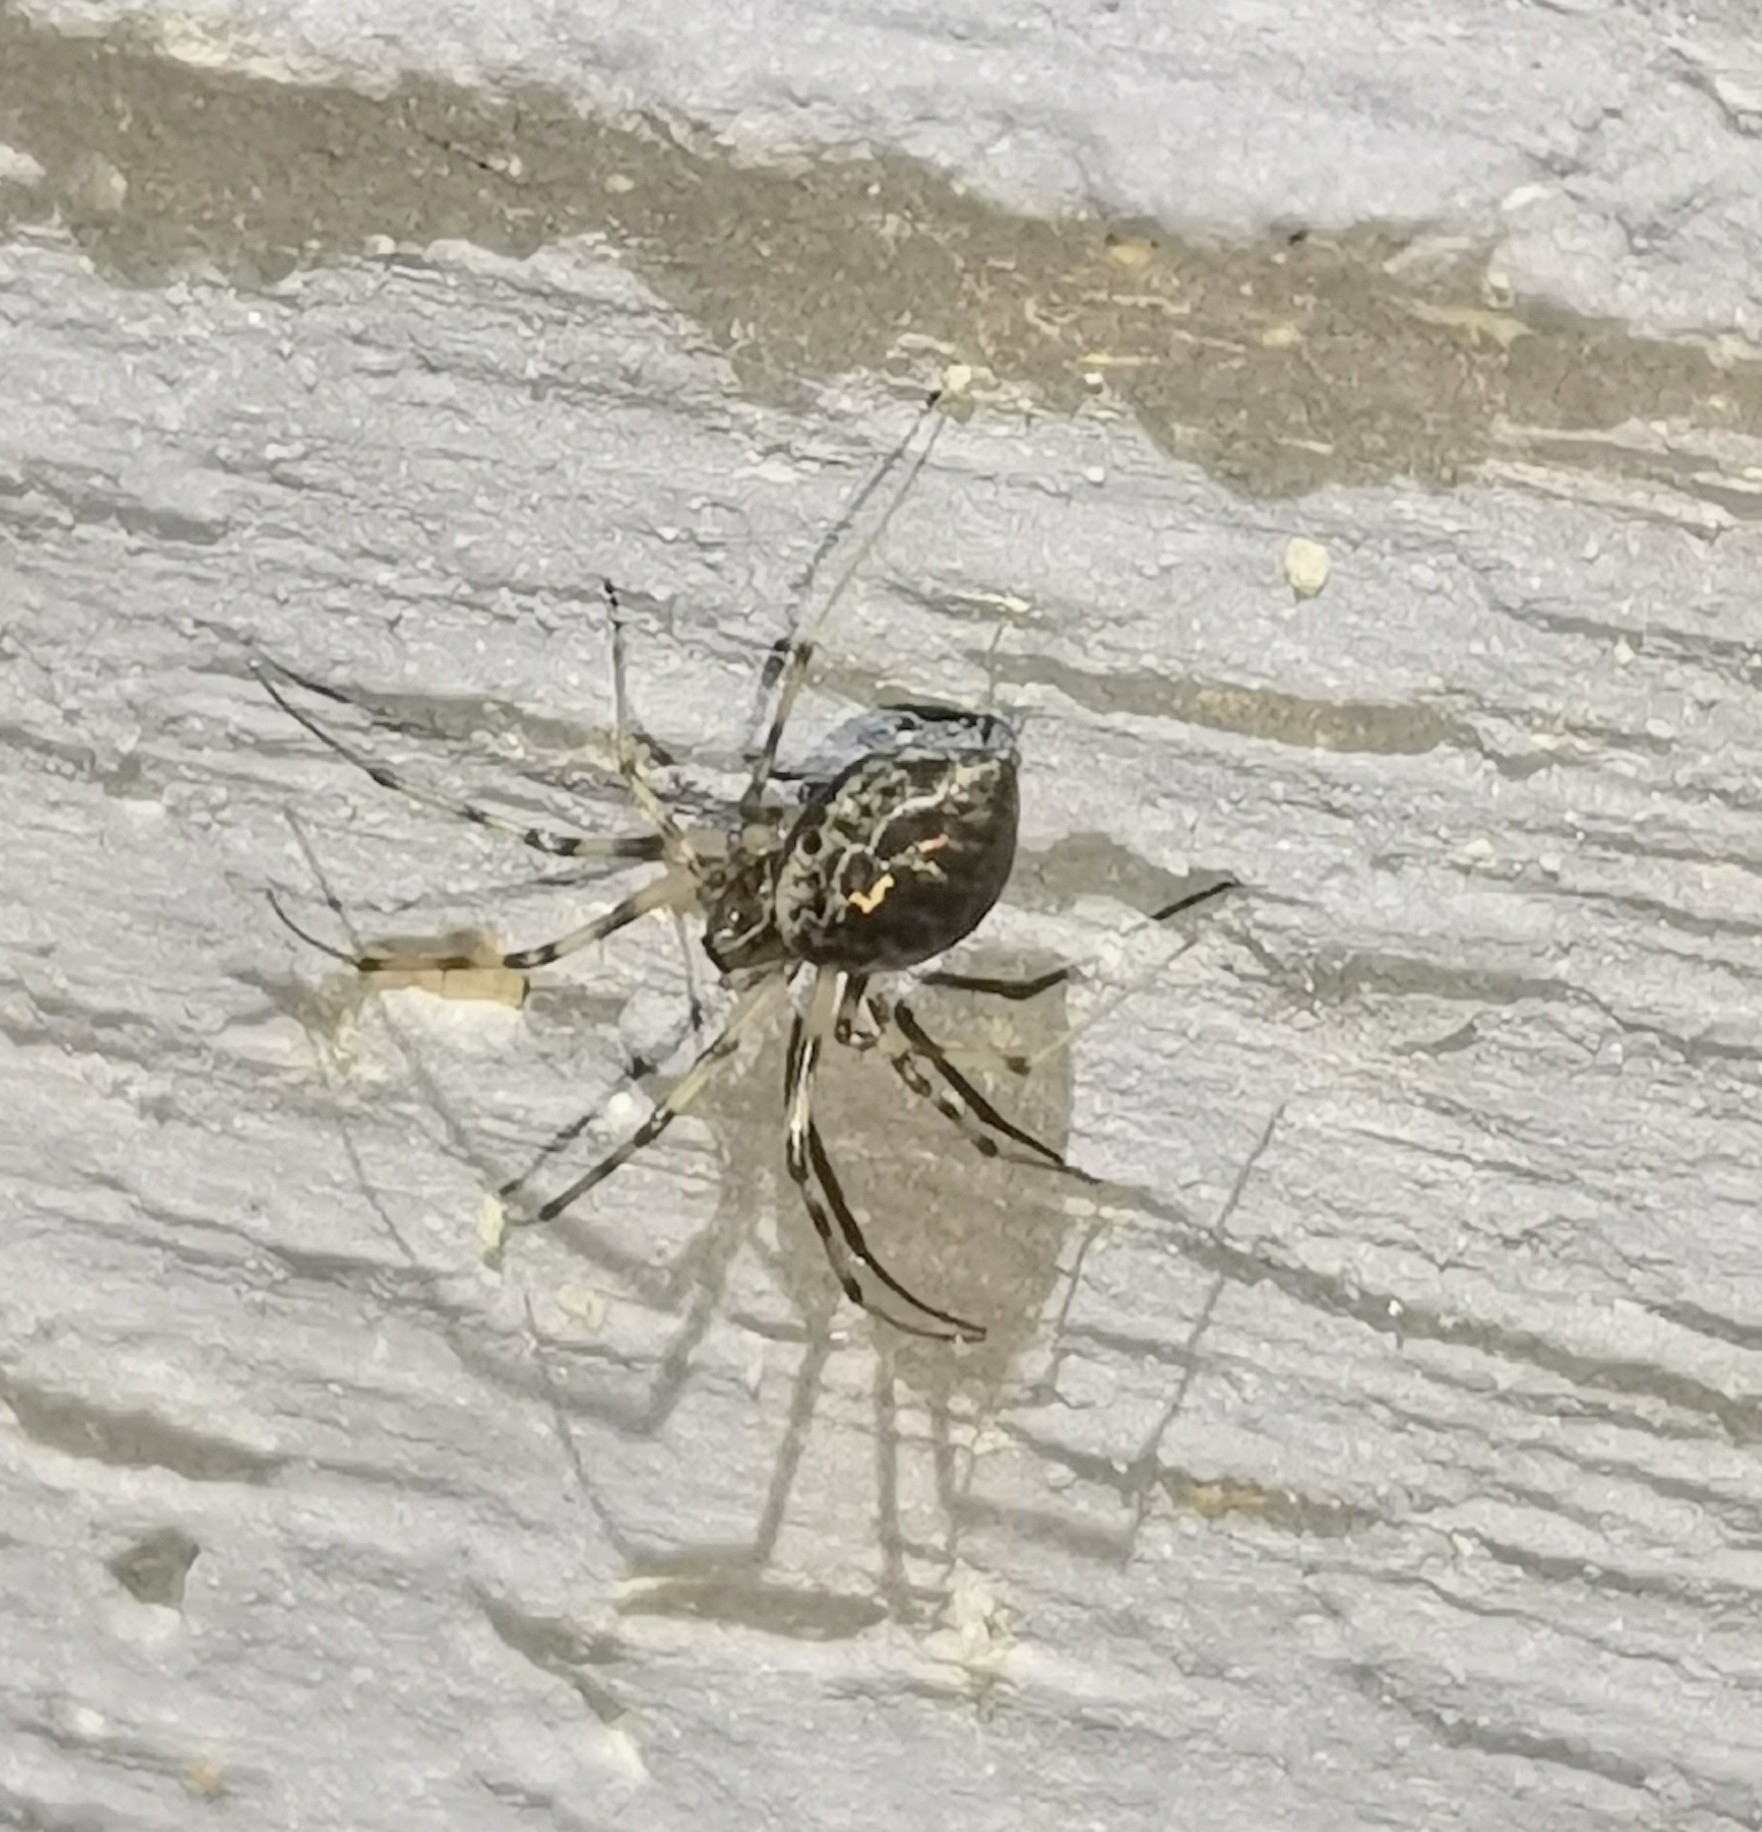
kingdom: Animalia
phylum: Arthropoda
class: Arachnida
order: Araneae
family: Linyphiidae
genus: Drapetisca
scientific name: Drapetisca socialis
